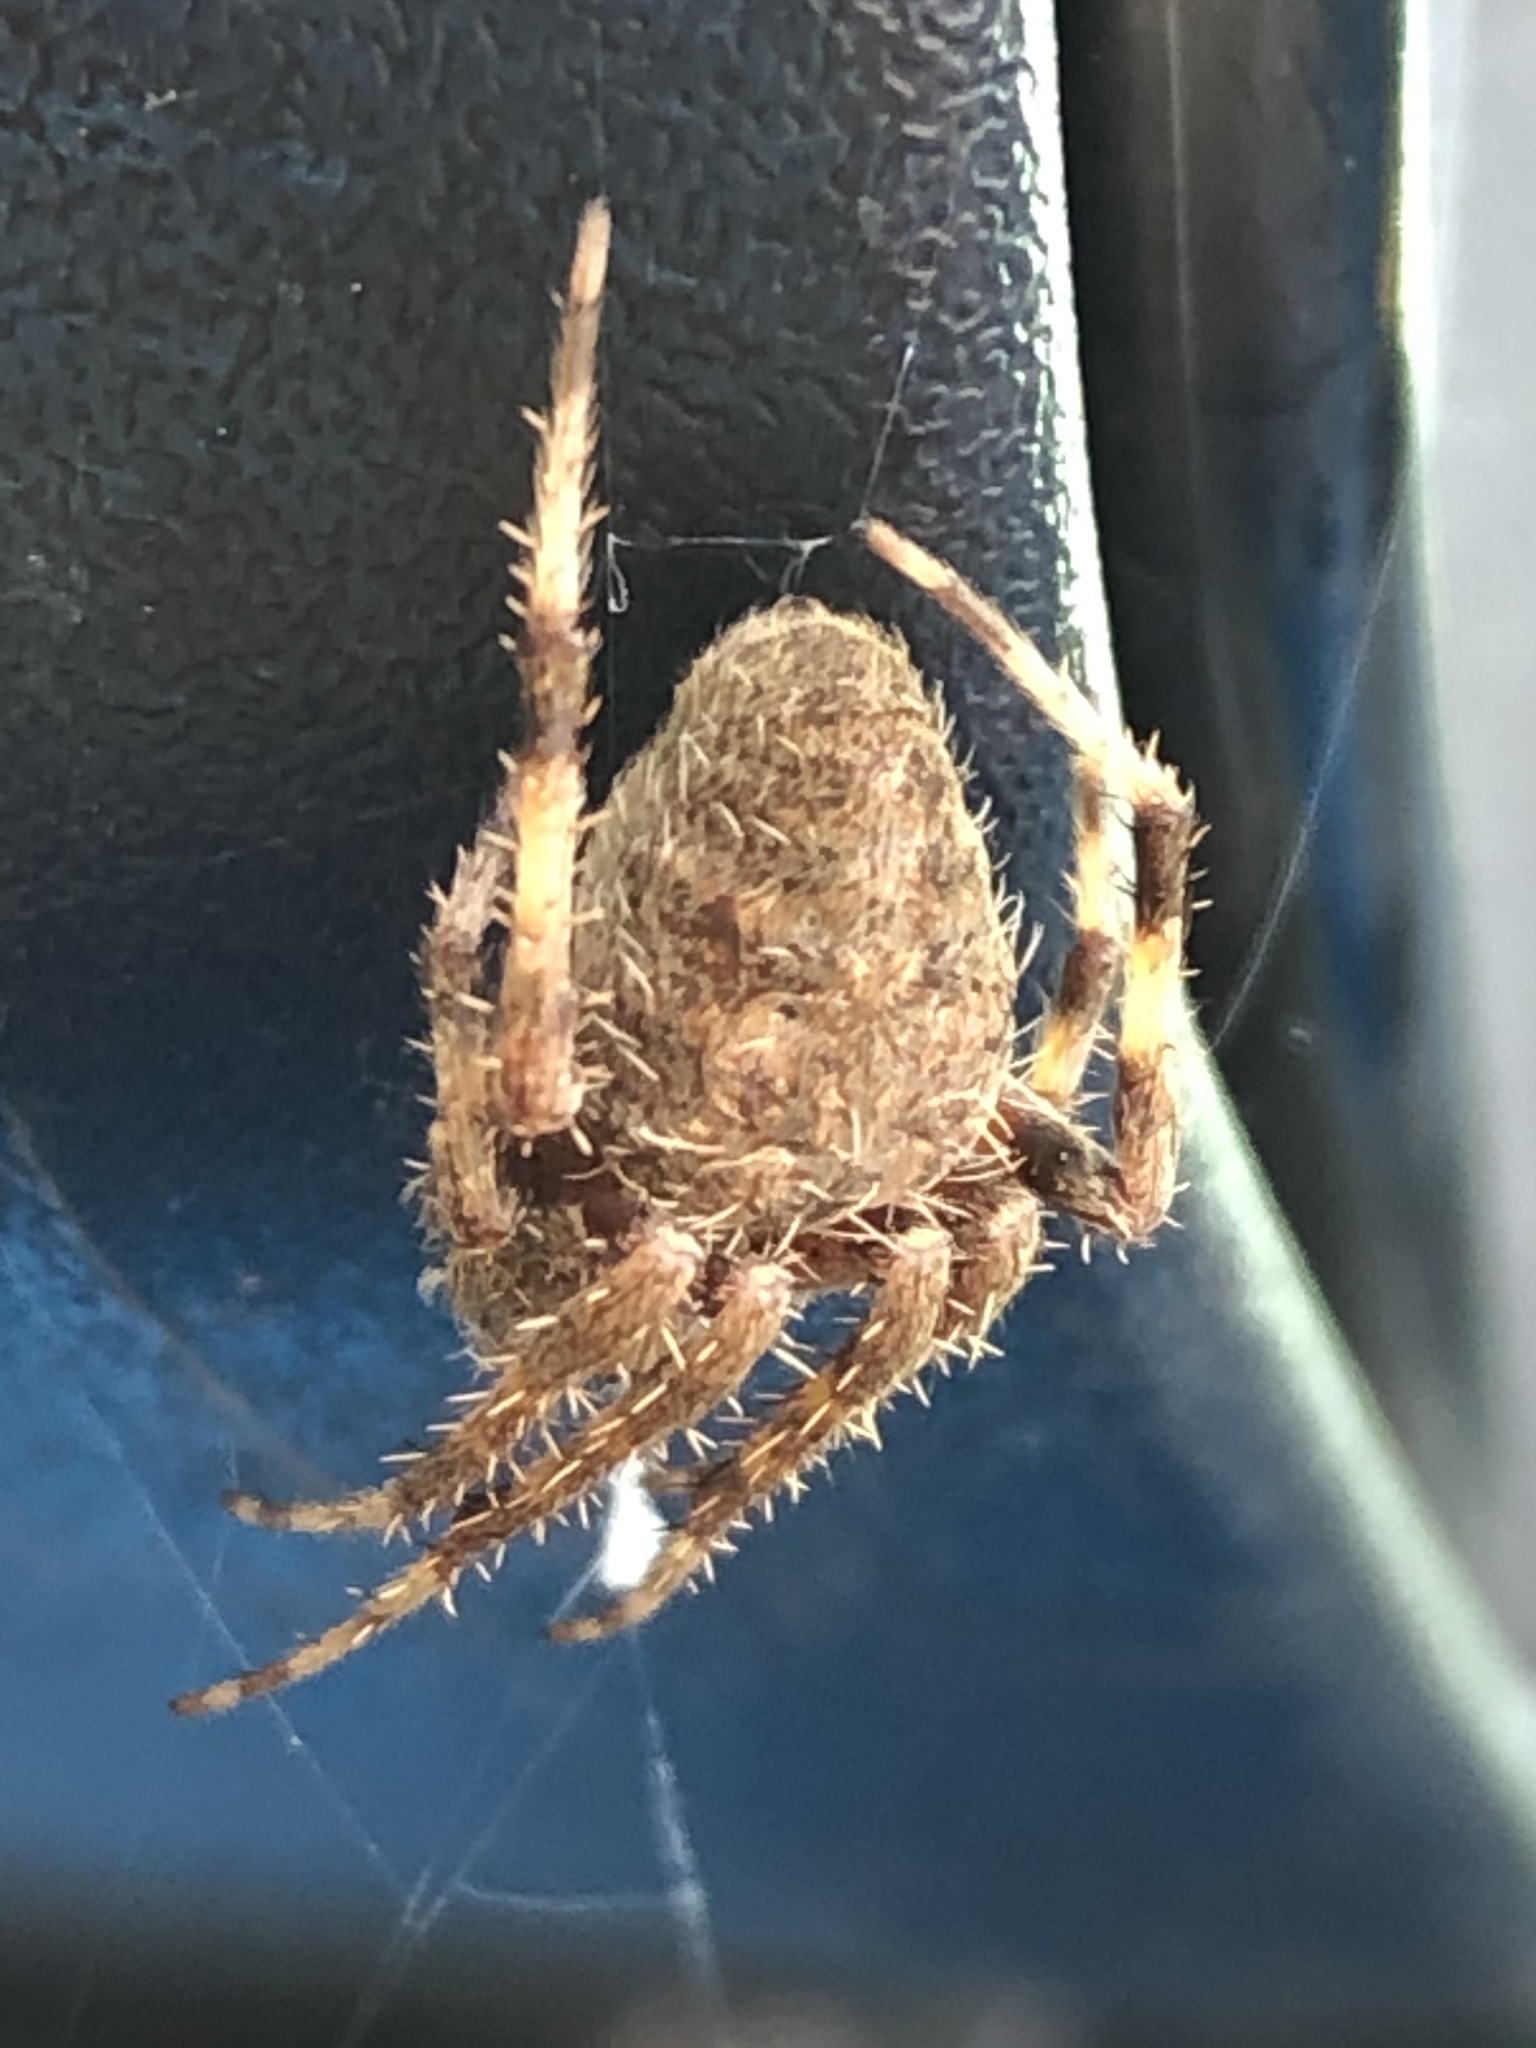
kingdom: Animalia
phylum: Arthropoda
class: Arachnida
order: Araneae
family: Araneidae
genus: Neoscona
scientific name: Neoscona crucifera
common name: Spotted orbweaver
